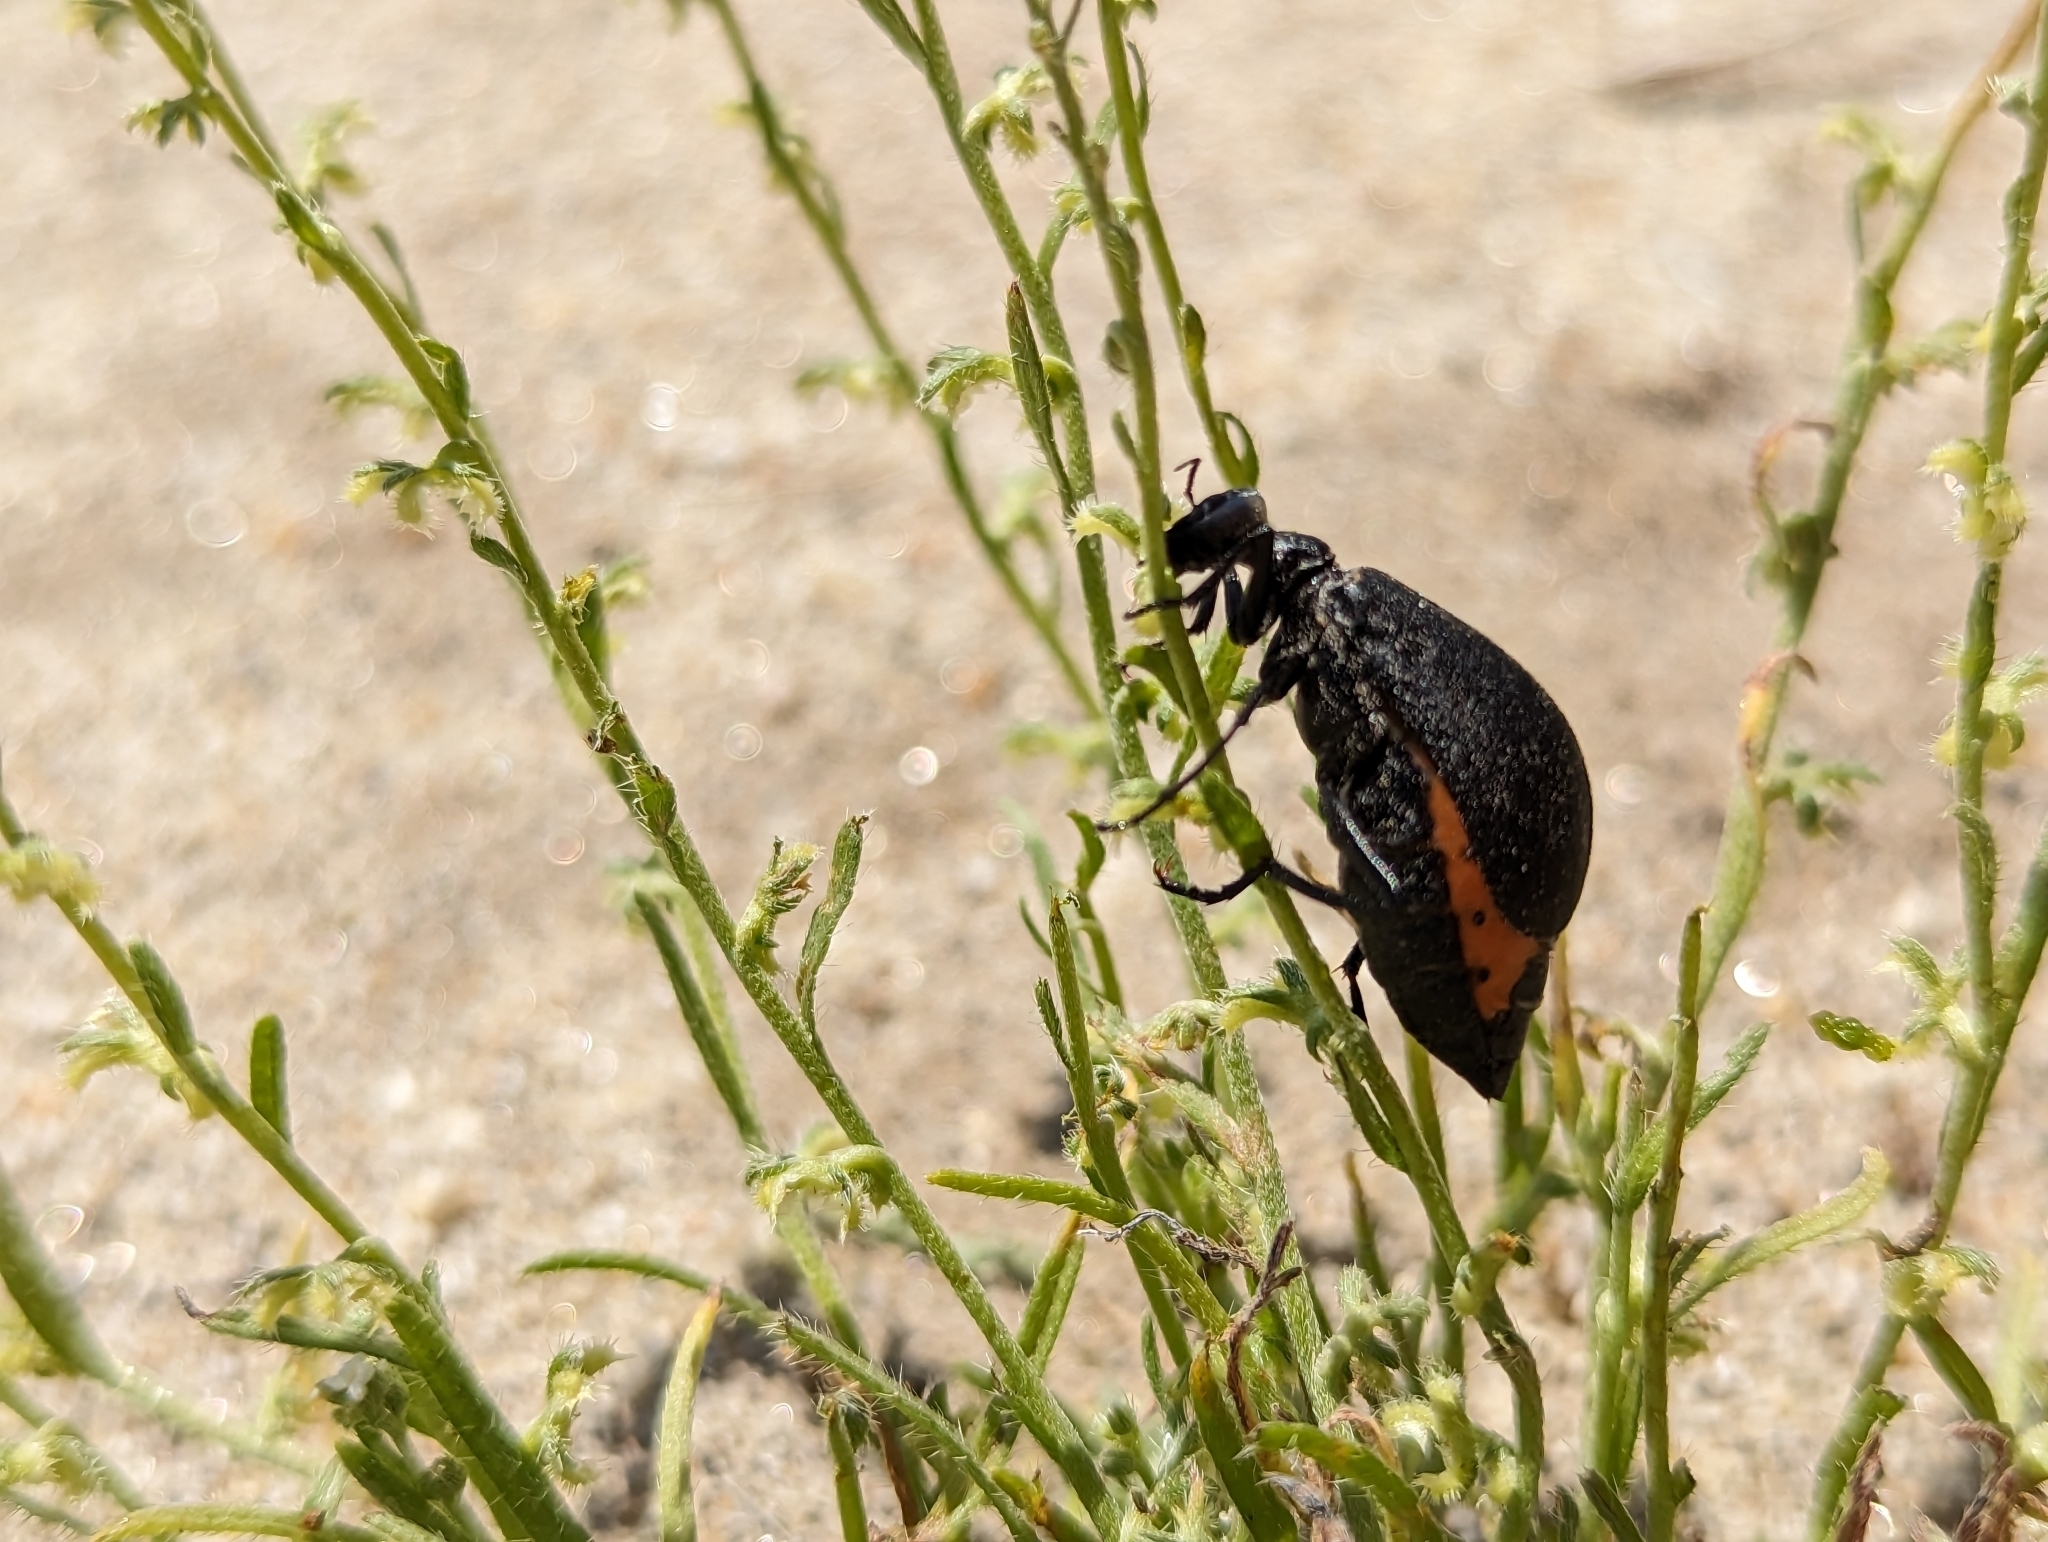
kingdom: Animalia
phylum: Arthropoda
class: Insecta
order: Coleoptera
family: Meloidae
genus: Phodaga
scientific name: Phodaga alticeps
